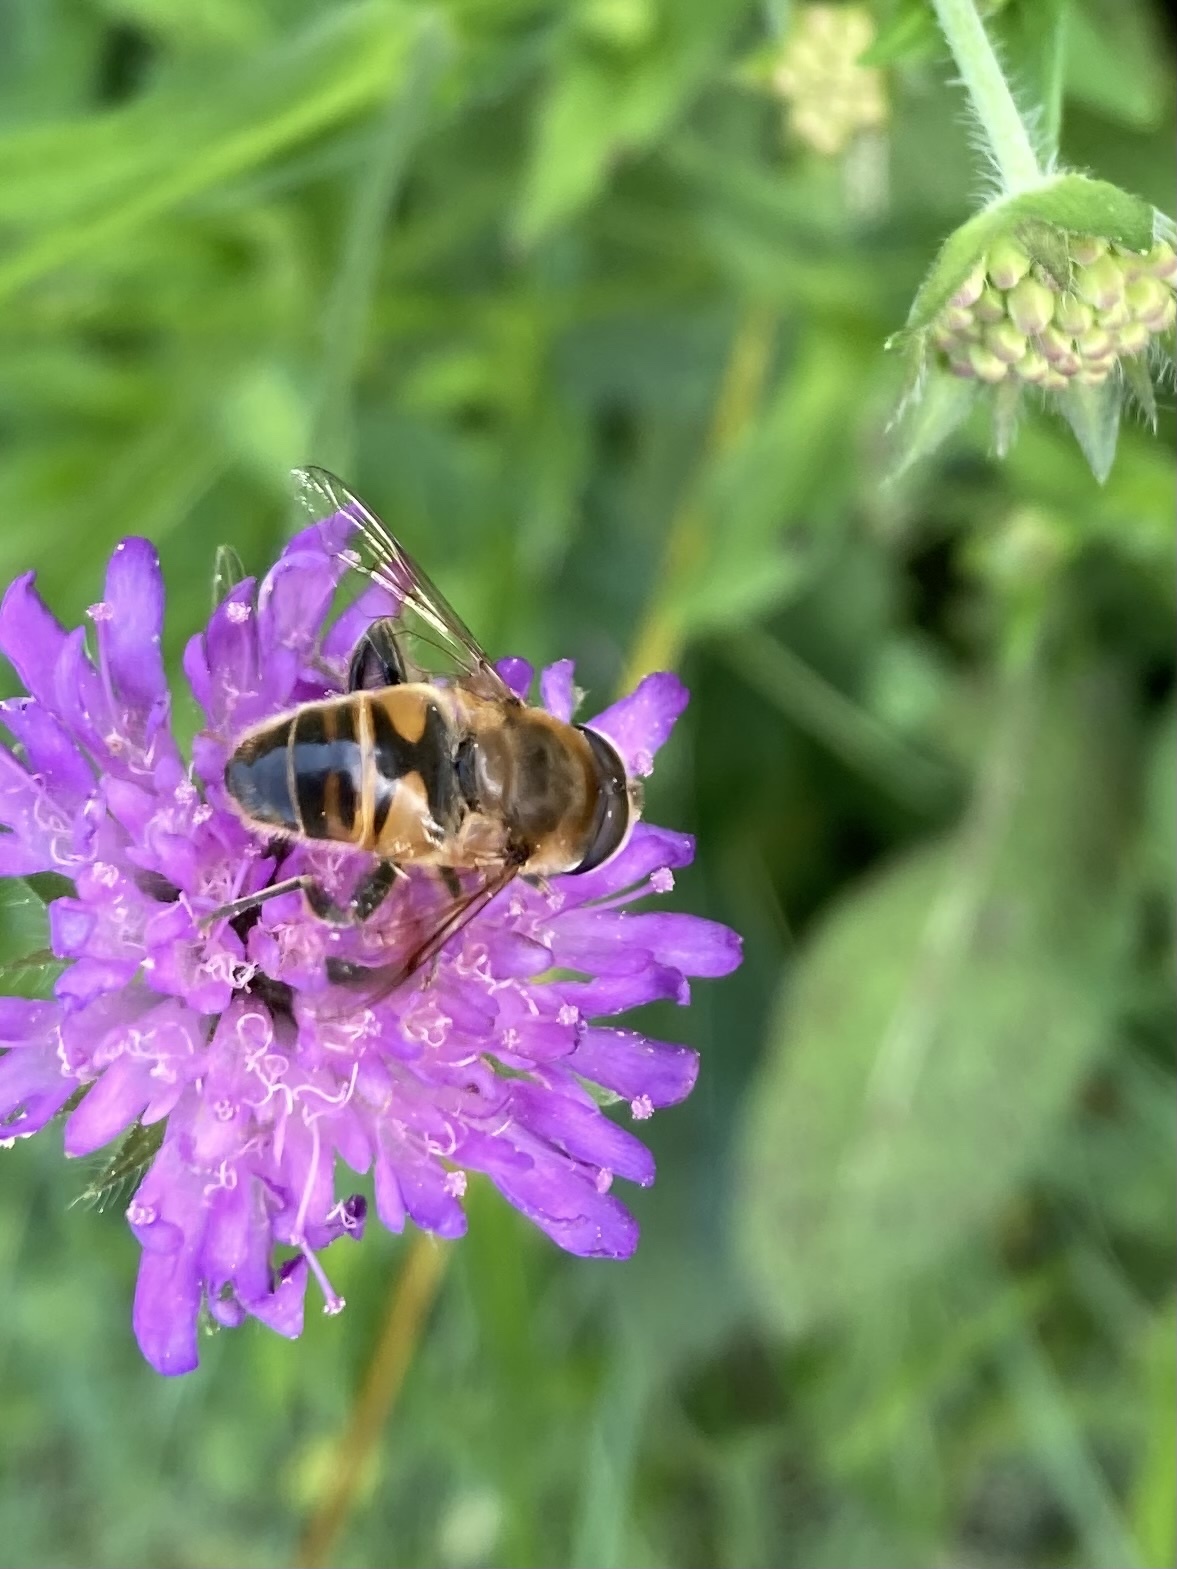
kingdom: Animalia
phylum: Arthropoda
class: Insecta
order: Diptera
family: Syrphidae
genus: Eristalis
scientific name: Eristalis tenax
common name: Drone fly
